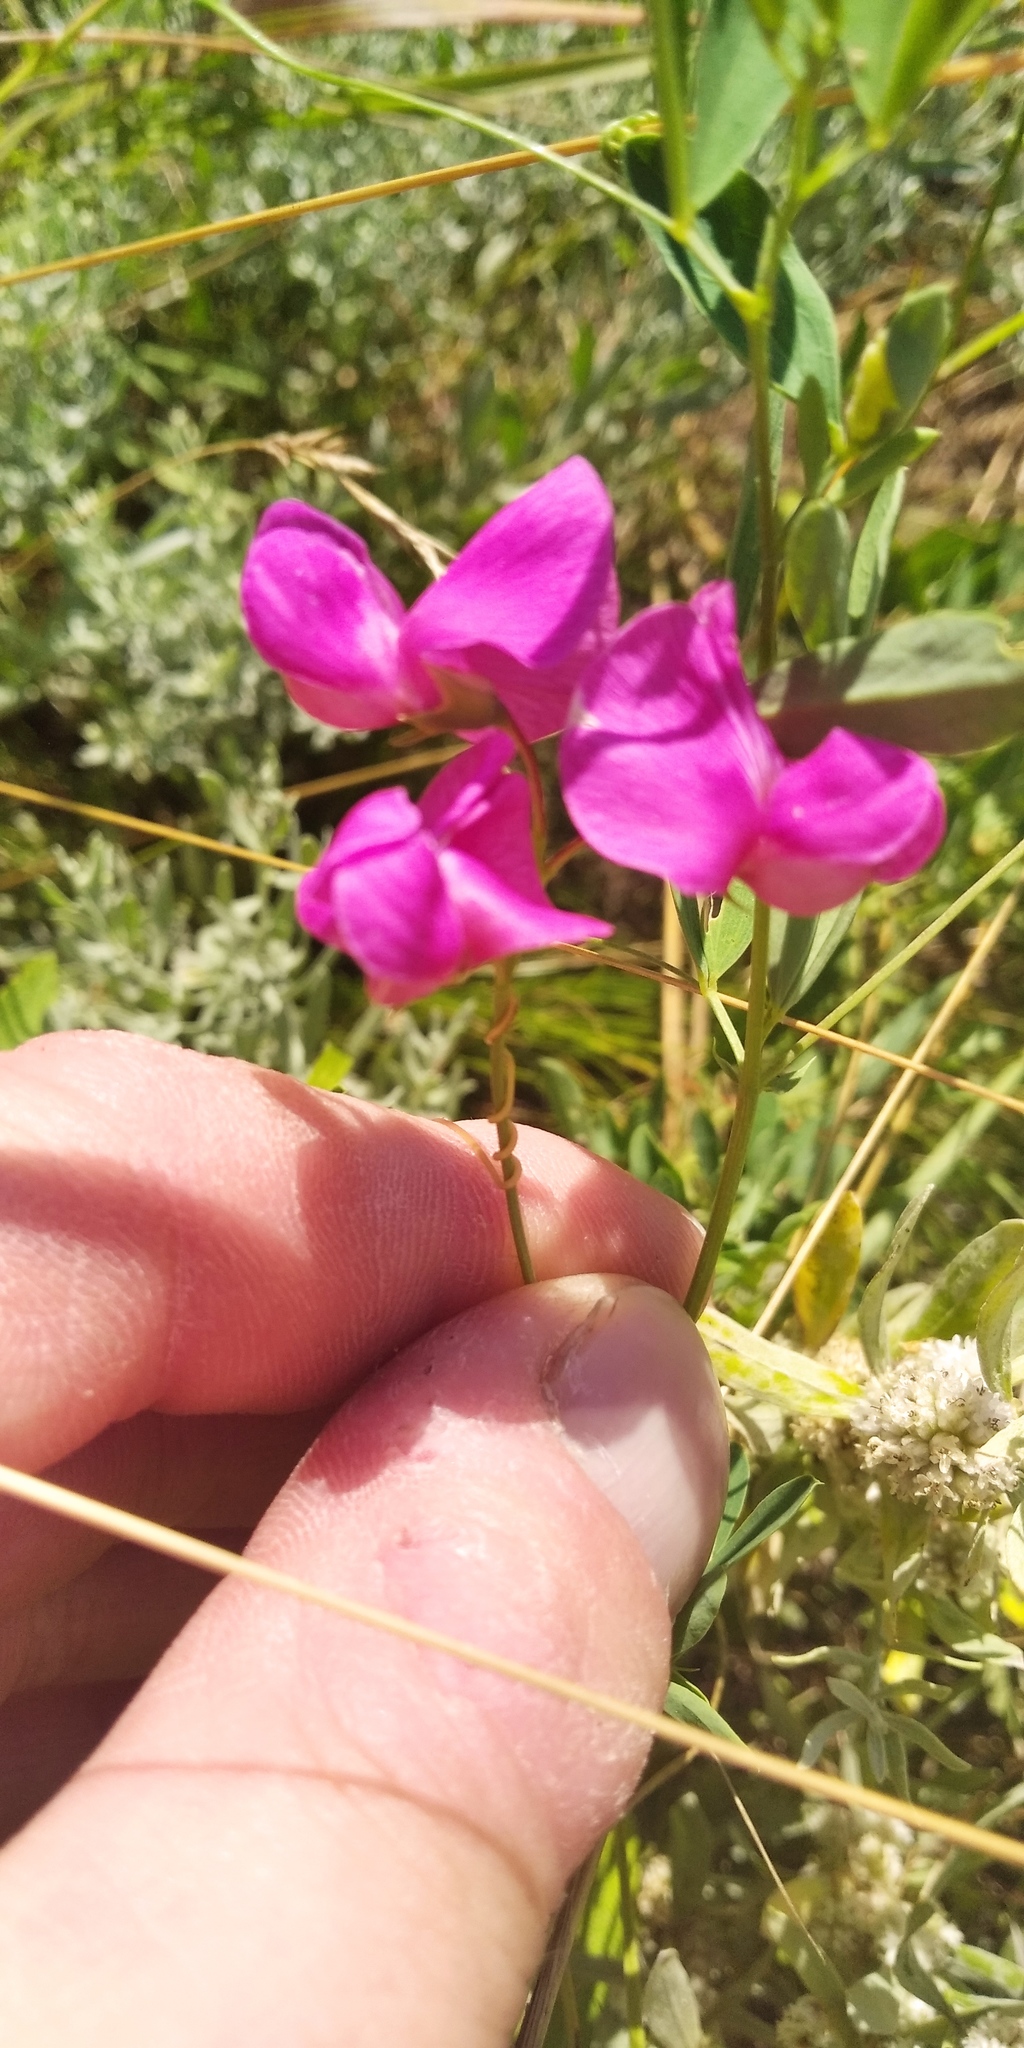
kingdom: Plantae
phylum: Tracheophyta
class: Magnoliopsida
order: Fabales
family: Fabaceae
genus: Lathyrus
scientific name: Lathyrus tuberosus
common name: Tuberous pea
